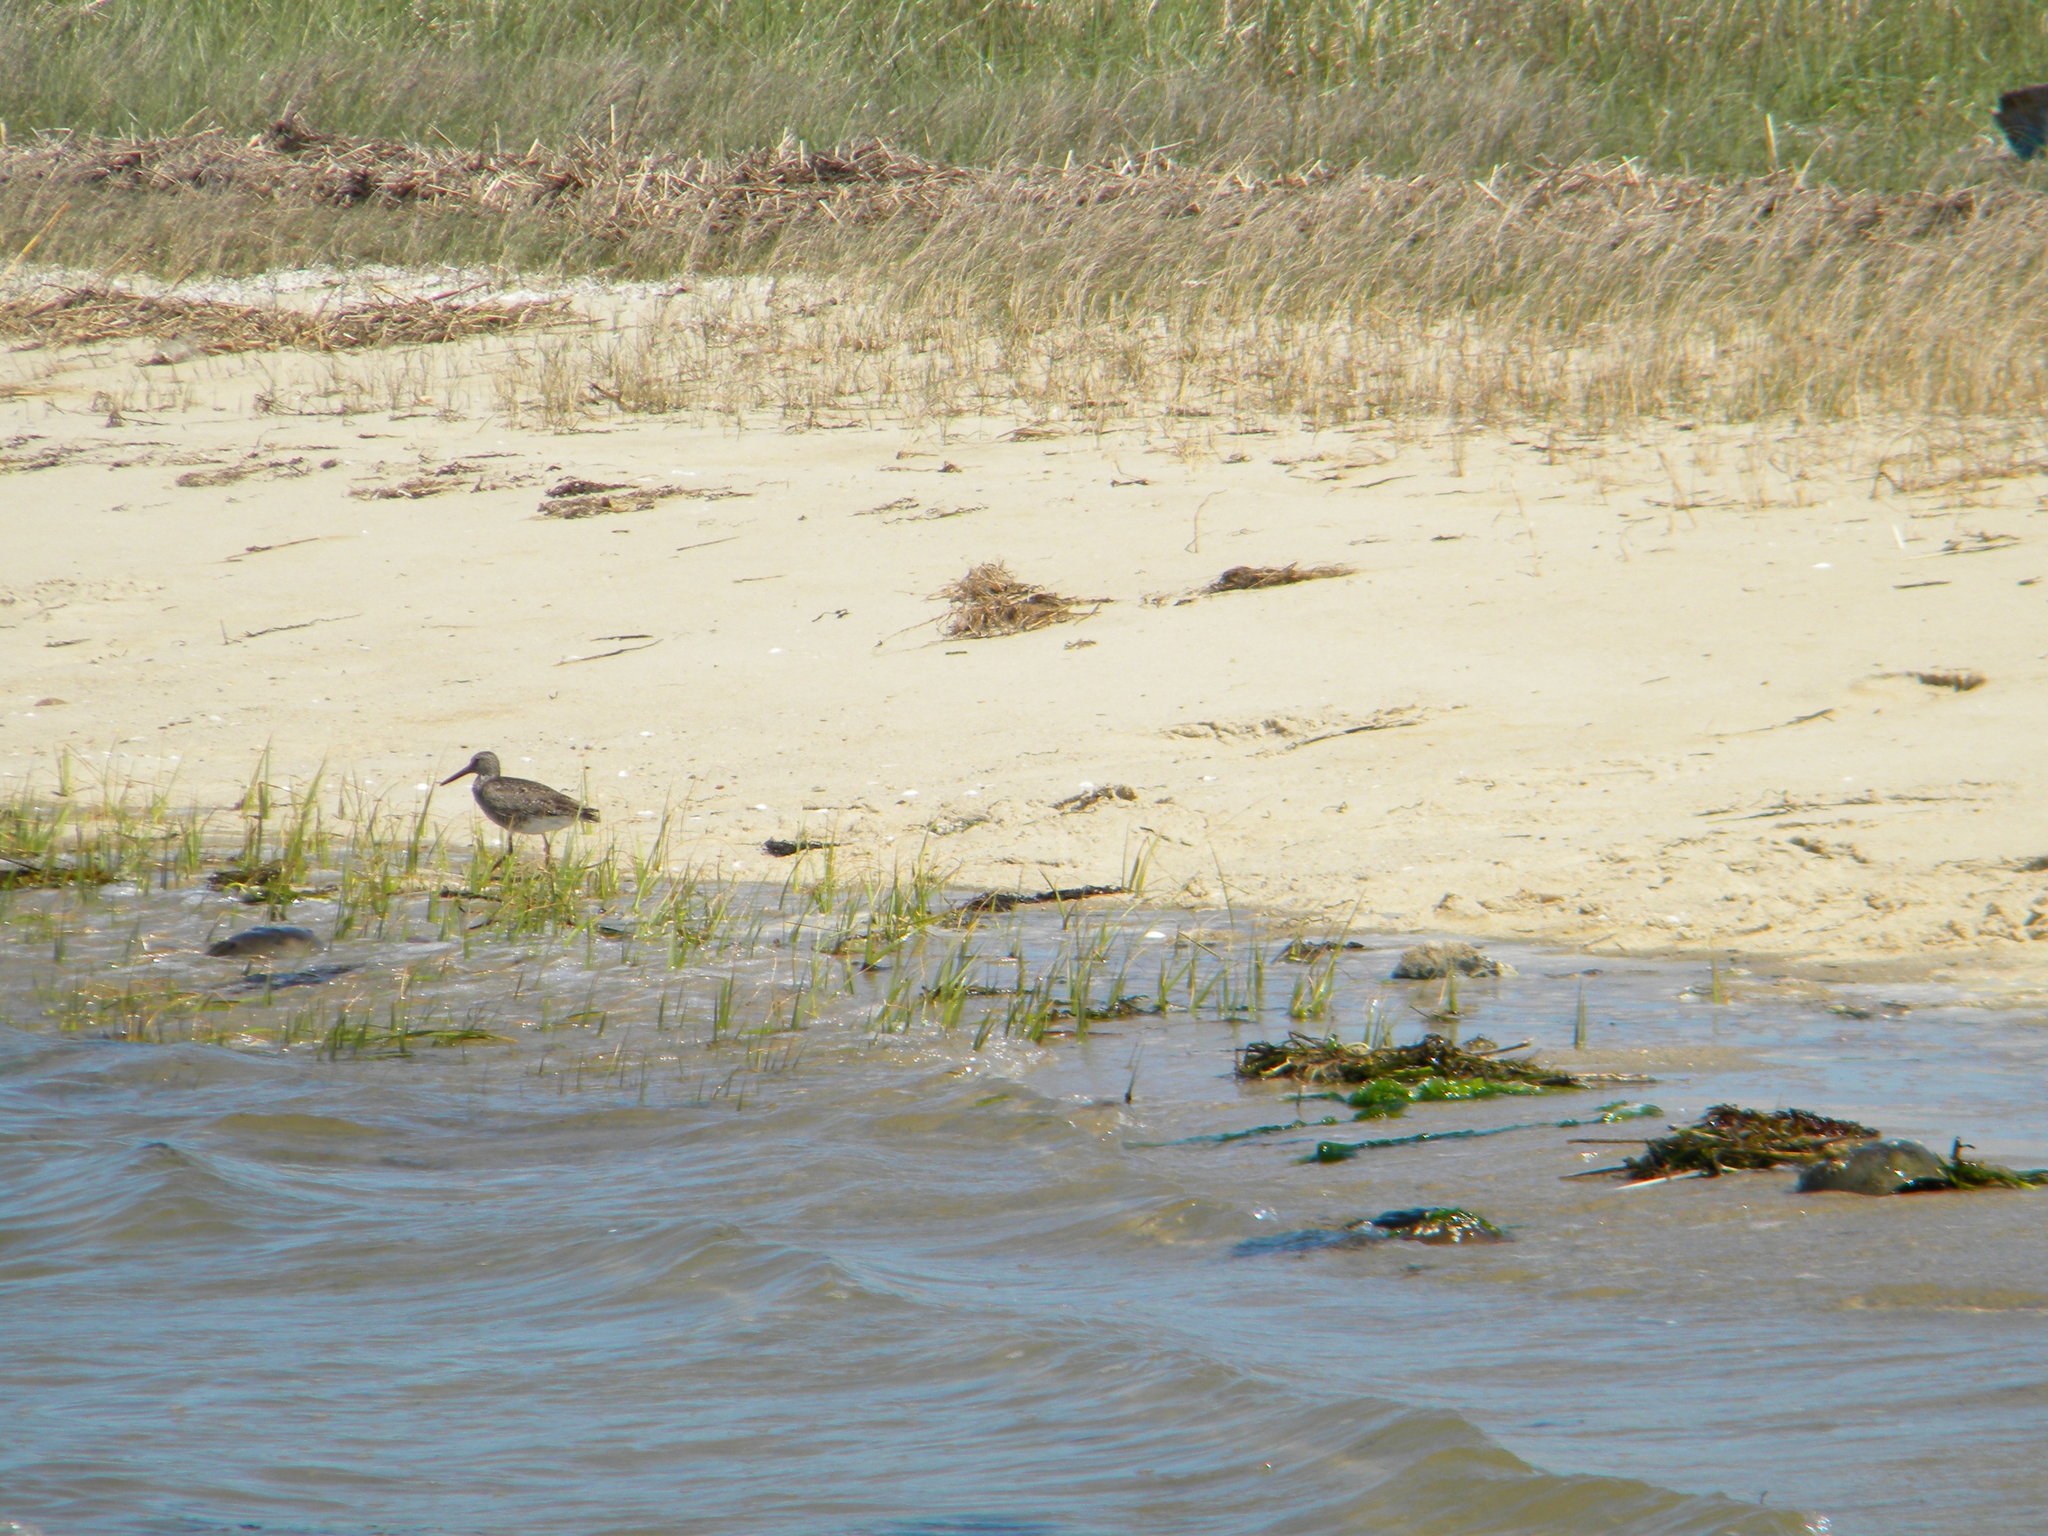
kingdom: Animalia
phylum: Chordata
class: Aves
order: Charadriiformes
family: Scolopacidae
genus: Tringa
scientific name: Tringa semipalmata
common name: Willet
